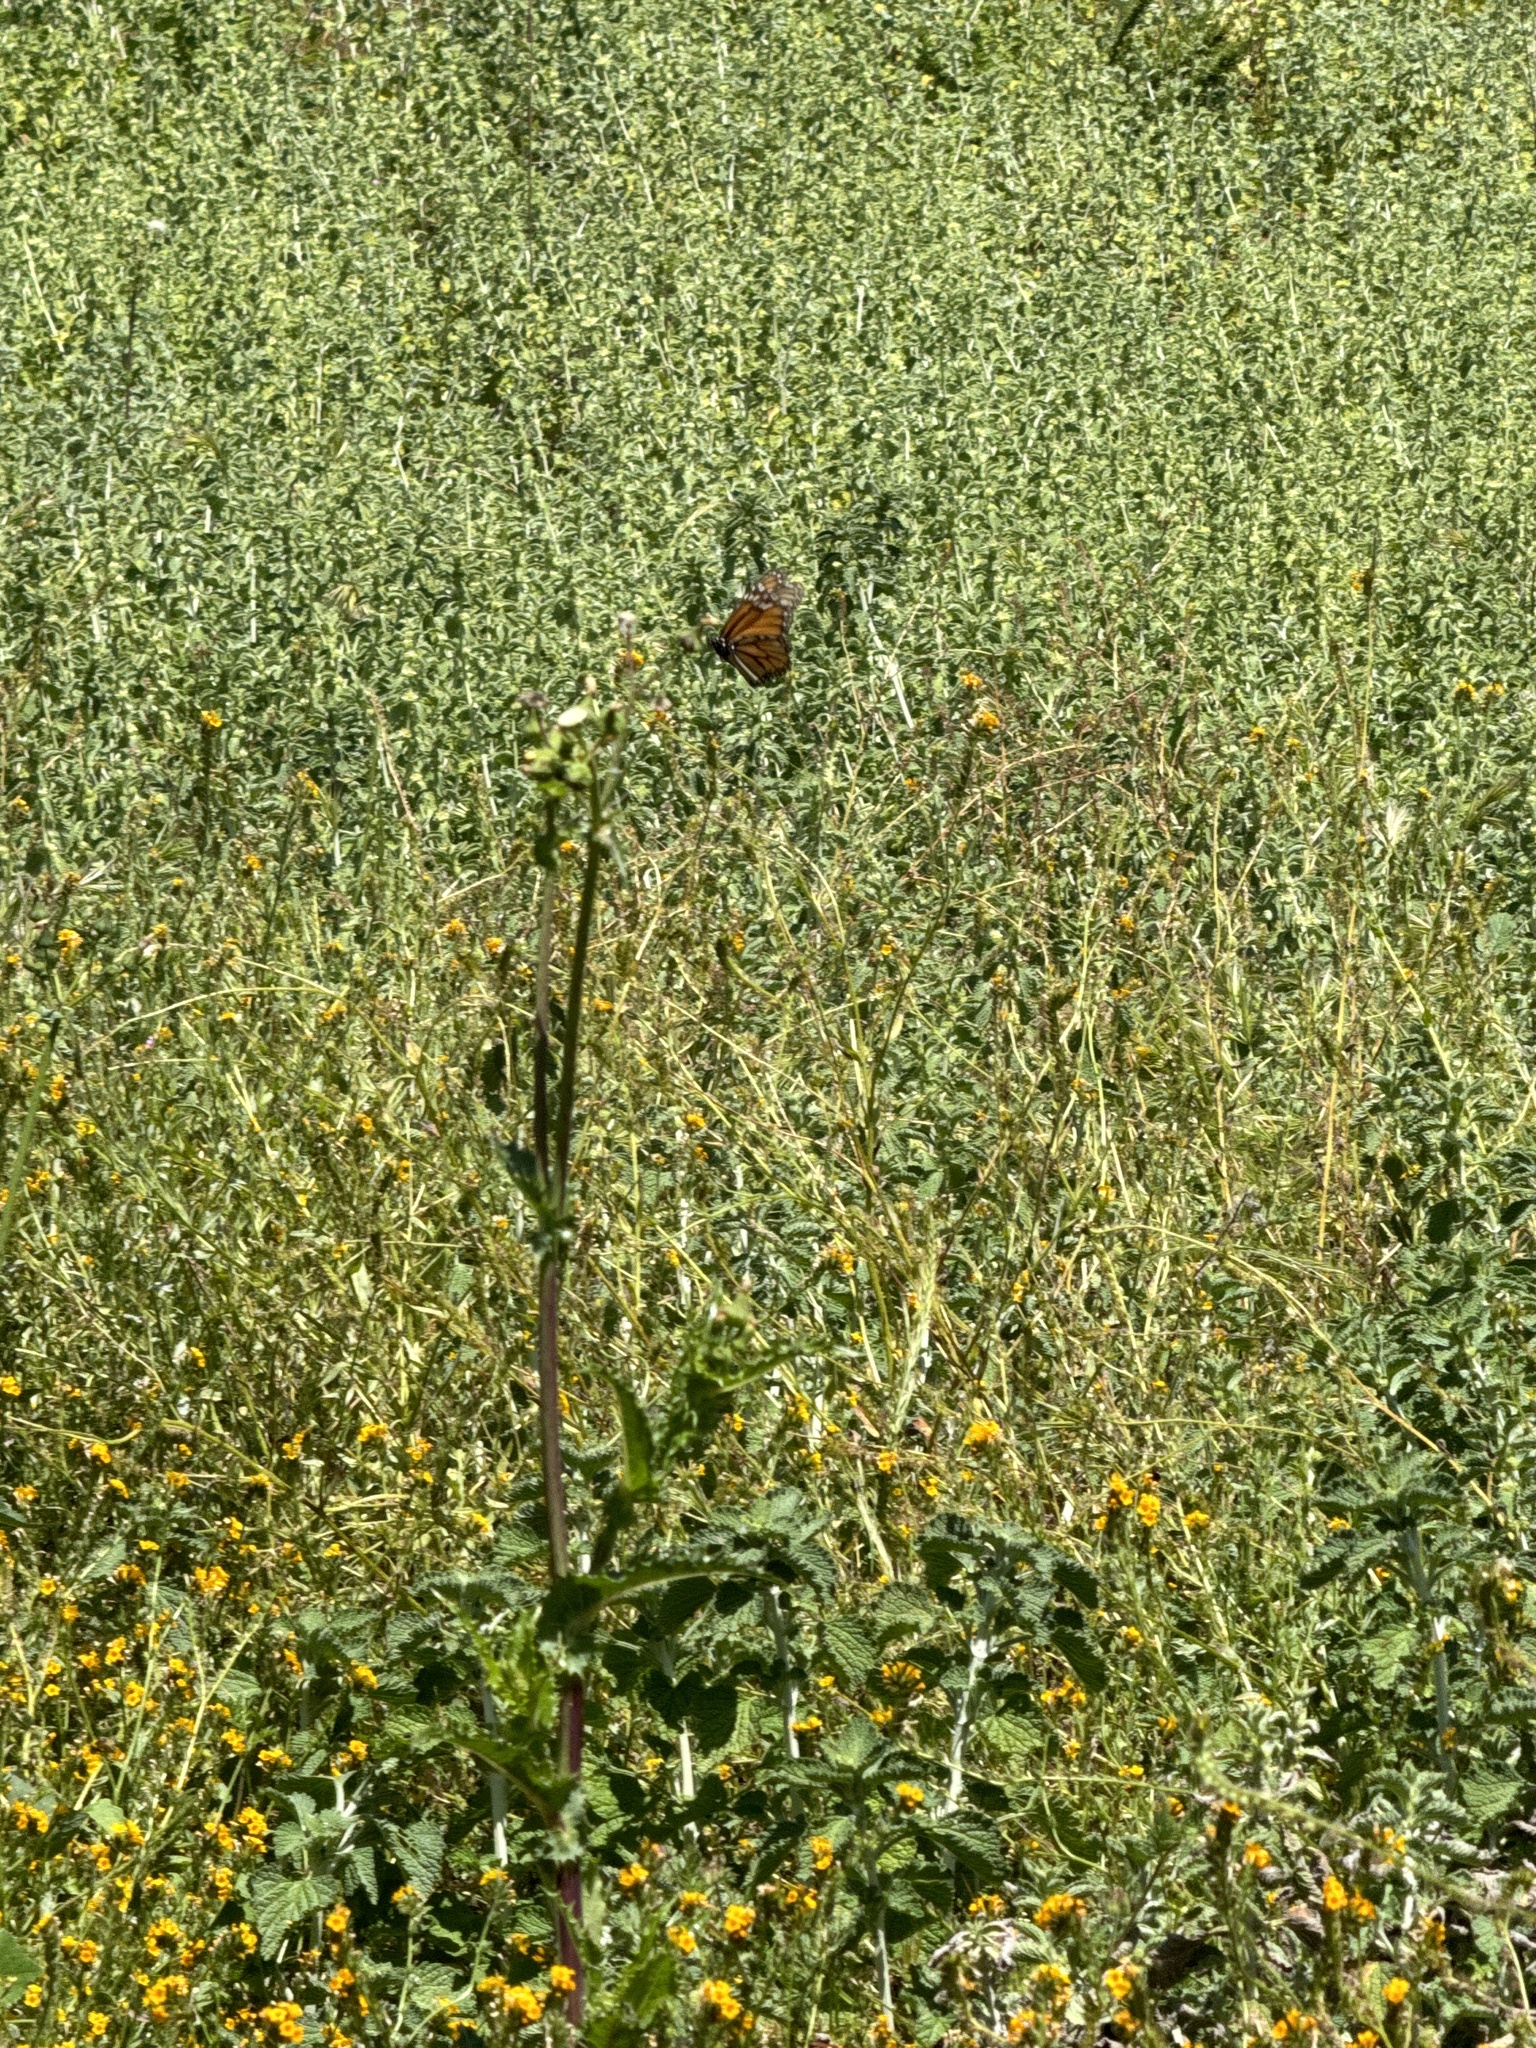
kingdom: Animalia
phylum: Arthropoda
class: Insecta
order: Lepidoptera
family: Nymphalidae
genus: Danaus
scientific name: Danaus plexippus
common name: Monarch
